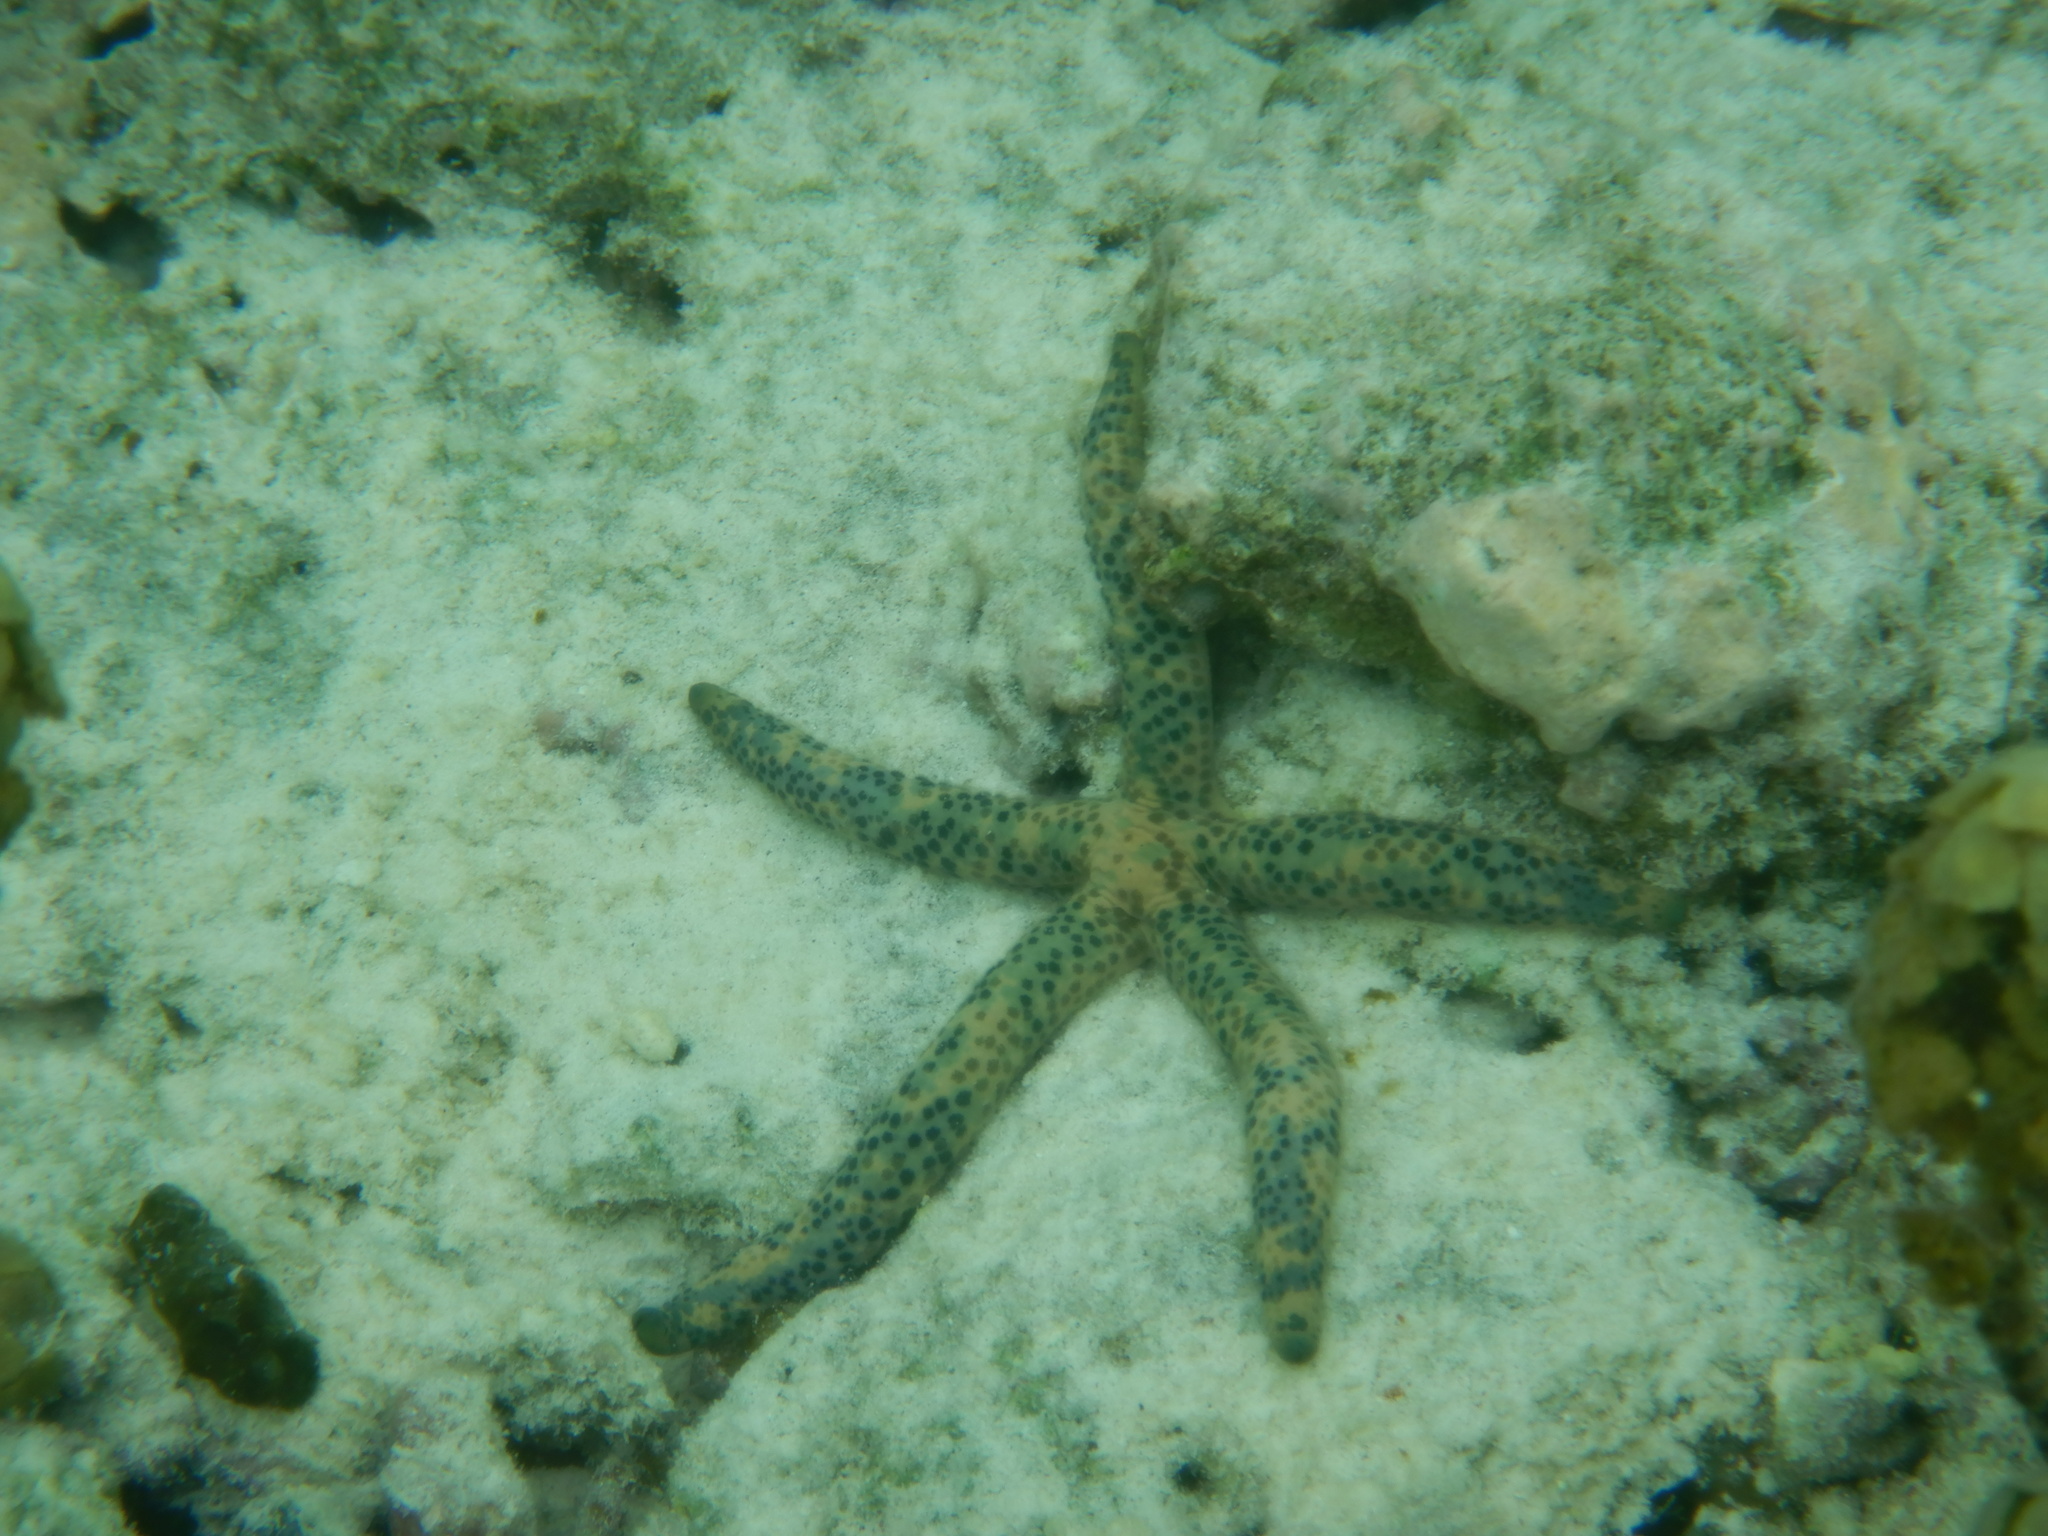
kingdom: Animalia
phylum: Echinodermata
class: Asteroidea
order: Valvatida
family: Ophidiasteridae
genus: Linckia
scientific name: Linckia multifora
